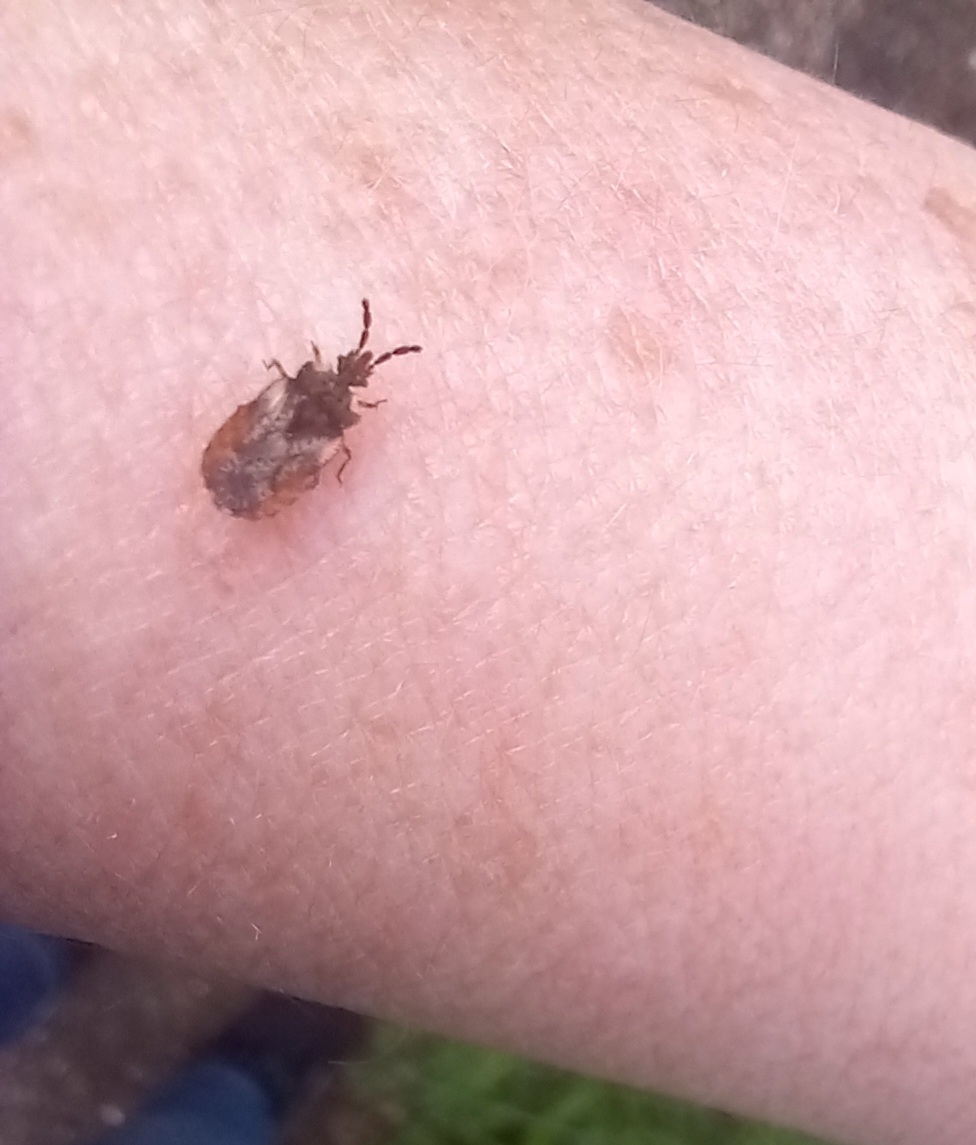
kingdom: Animalia
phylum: Arthropoda
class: Insecta
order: Hemiptera
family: Aradidae
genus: Aradus
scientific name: Aradus depressus
